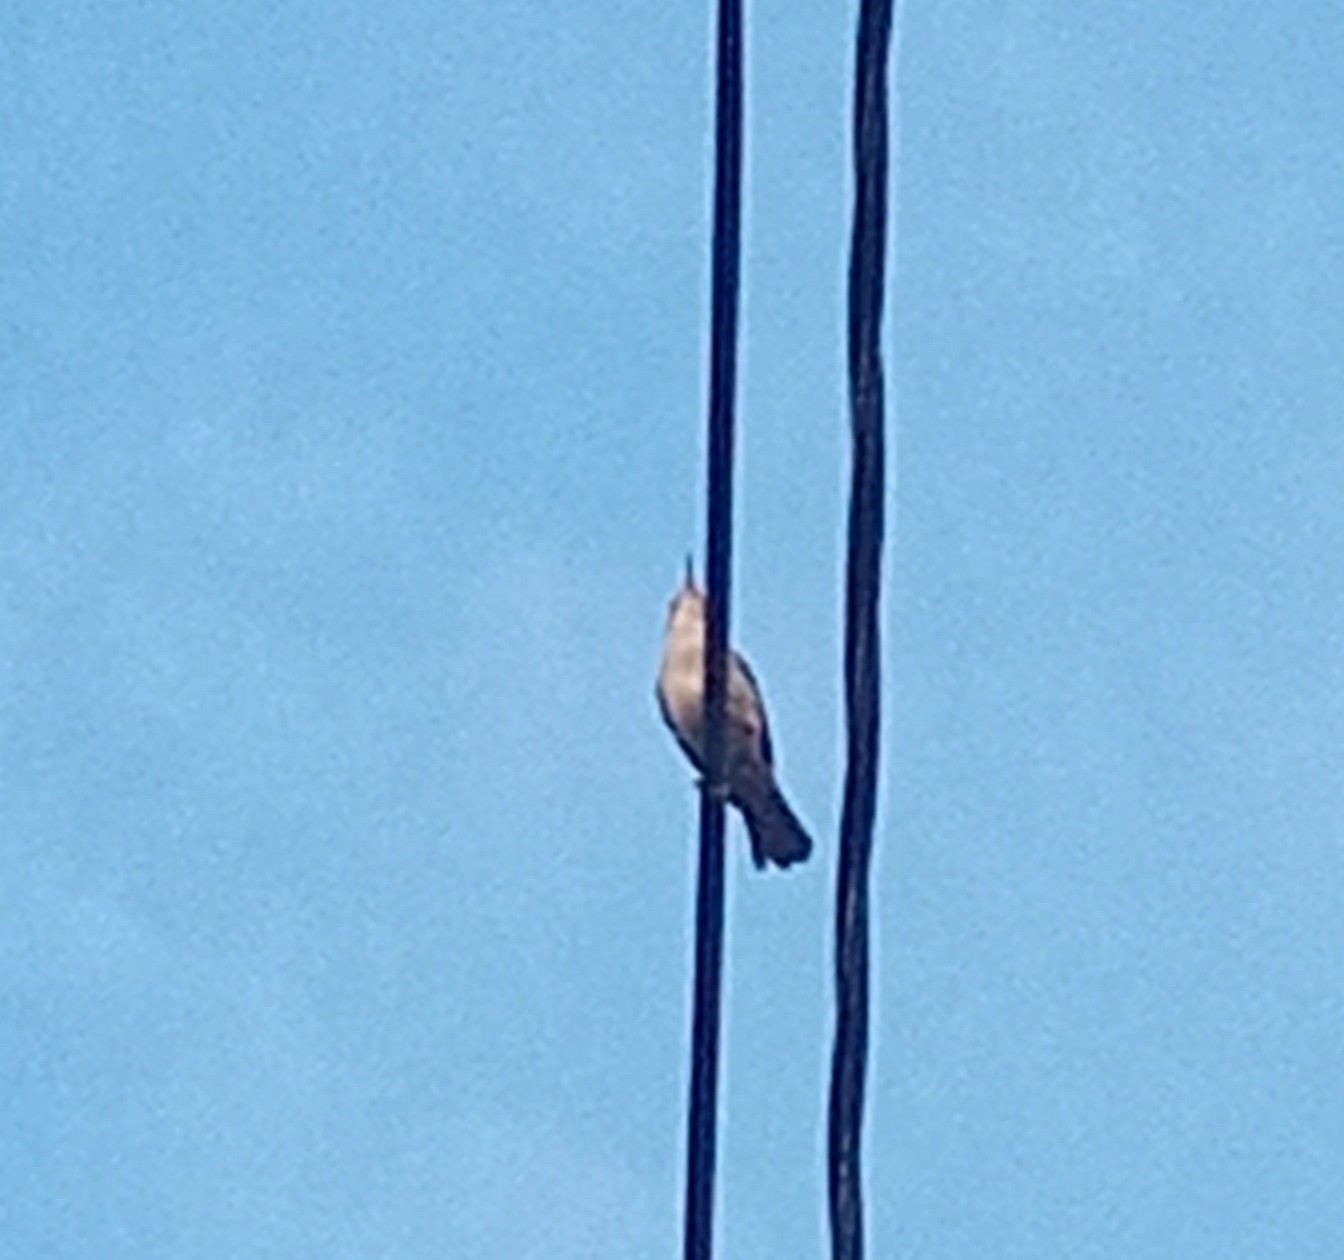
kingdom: Animalia
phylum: Chordata
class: Aves
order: Passeriformes
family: Troglodytidae
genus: Troglodytes
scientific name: Troglodytes aedon
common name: House wren
